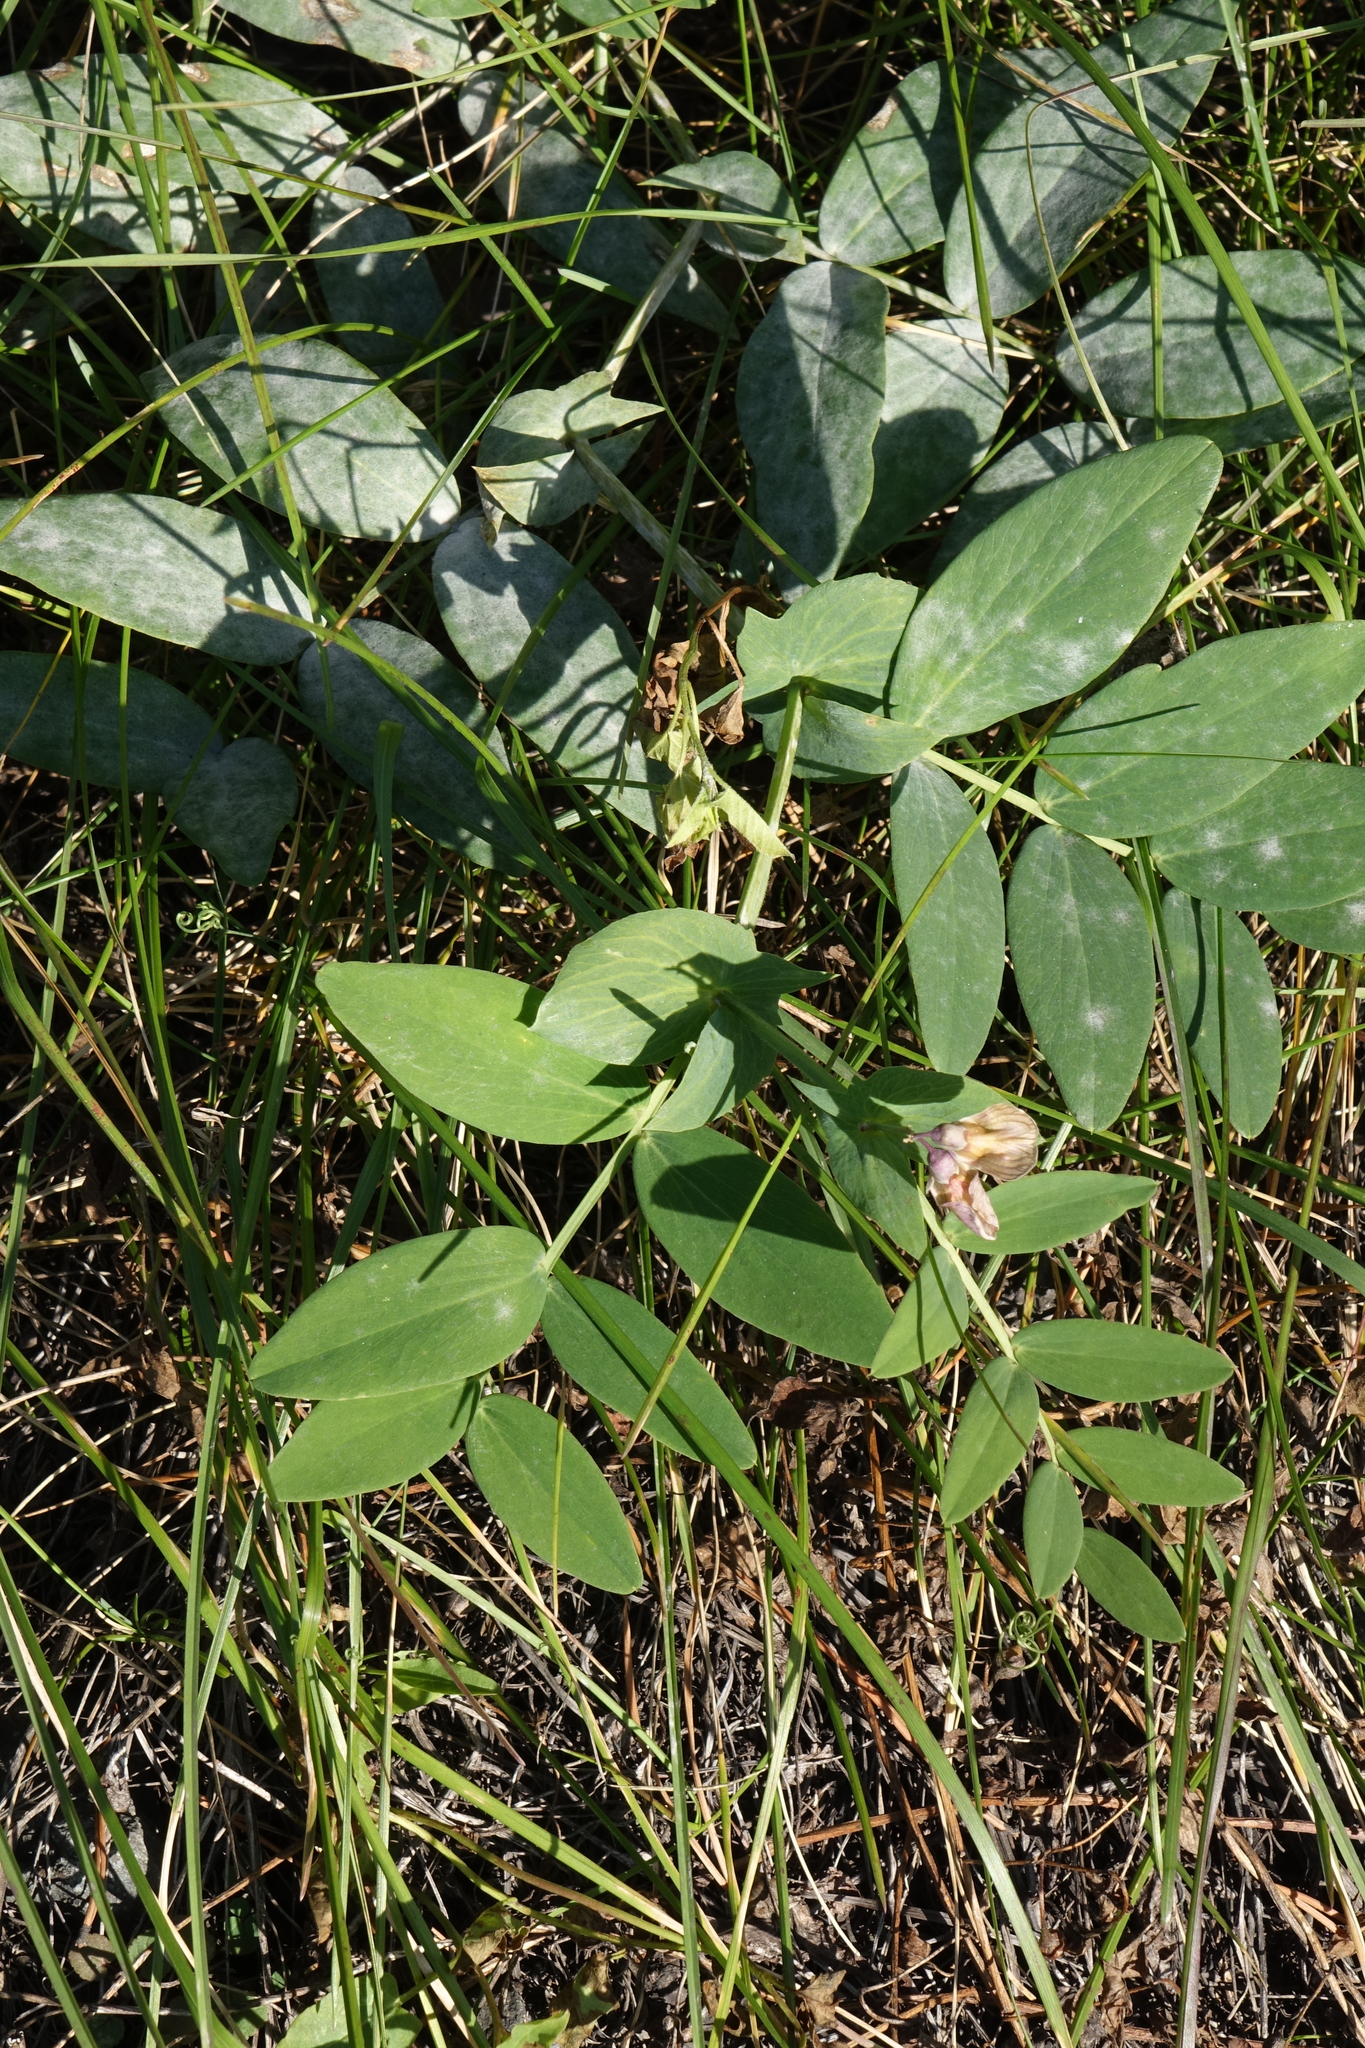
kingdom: Plantae
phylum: Tracheophyta
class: Magnoliopsida
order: Fabales
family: Fabaceae
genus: Lathyrus
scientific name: Lathyrus pisiformis
